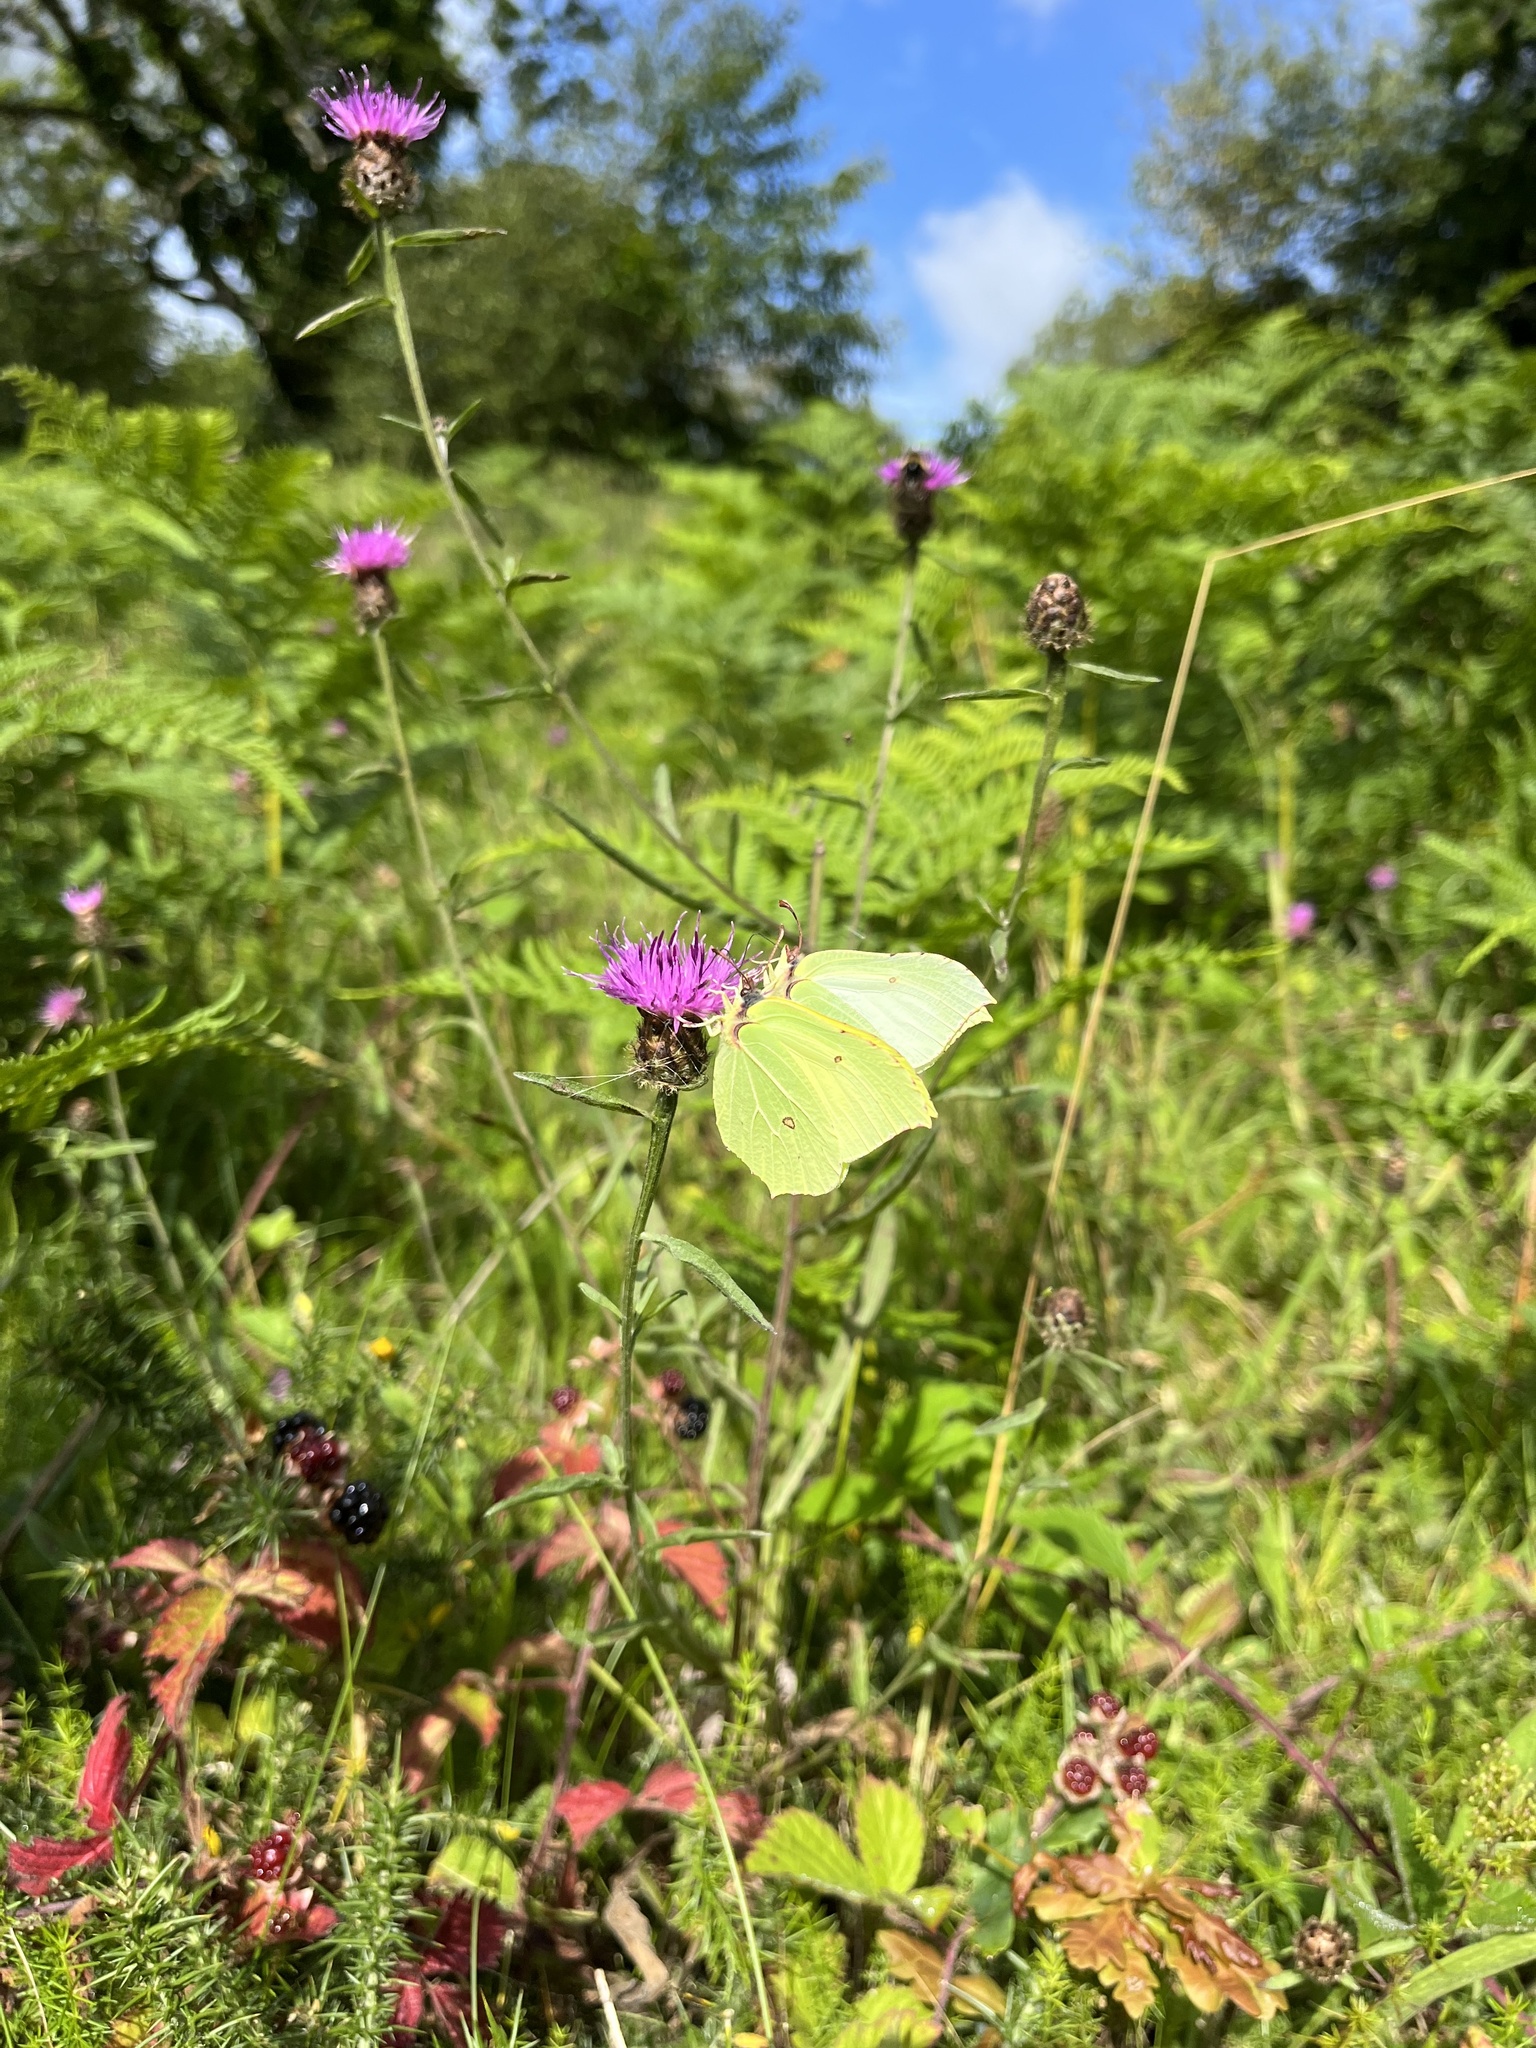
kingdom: Animalia
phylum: Arthropoda
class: Insecta
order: Lepidoptera
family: Pieridae
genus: Gonepteryx
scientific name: Gonepteryx rhamni
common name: Brimstone
